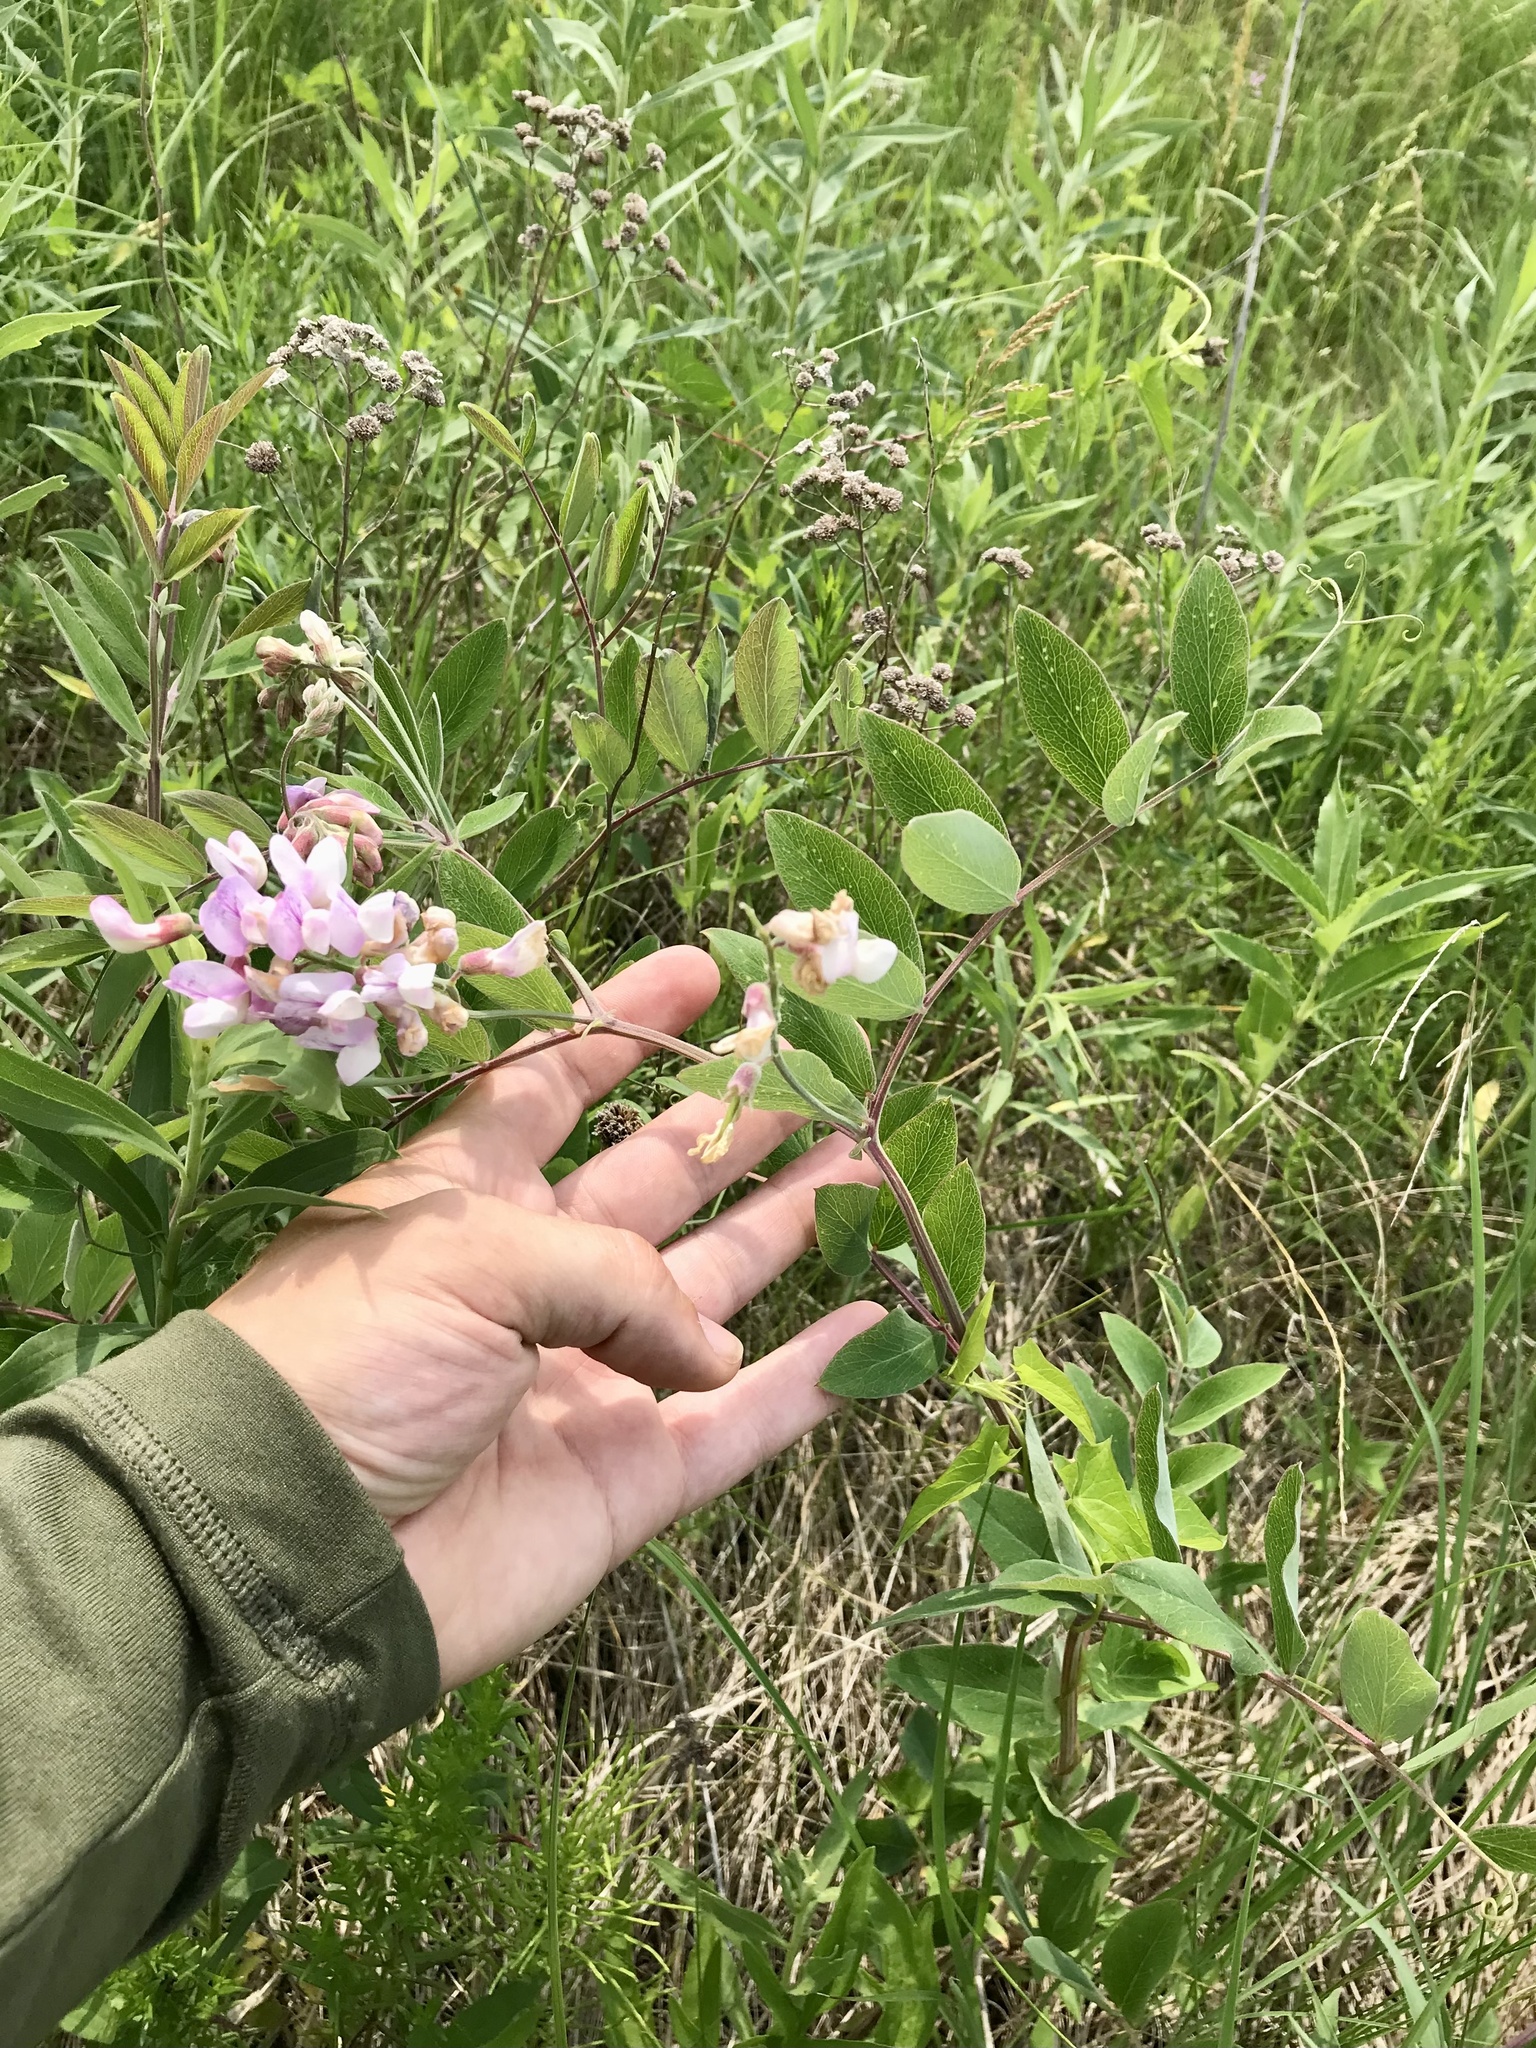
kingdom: Plantae
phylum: Tracheophyta
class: Magnoliopsida
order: Fabales
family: Fabaceae
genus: Lathyrus
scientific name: Lathyrus venosus
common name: Forest-pea
